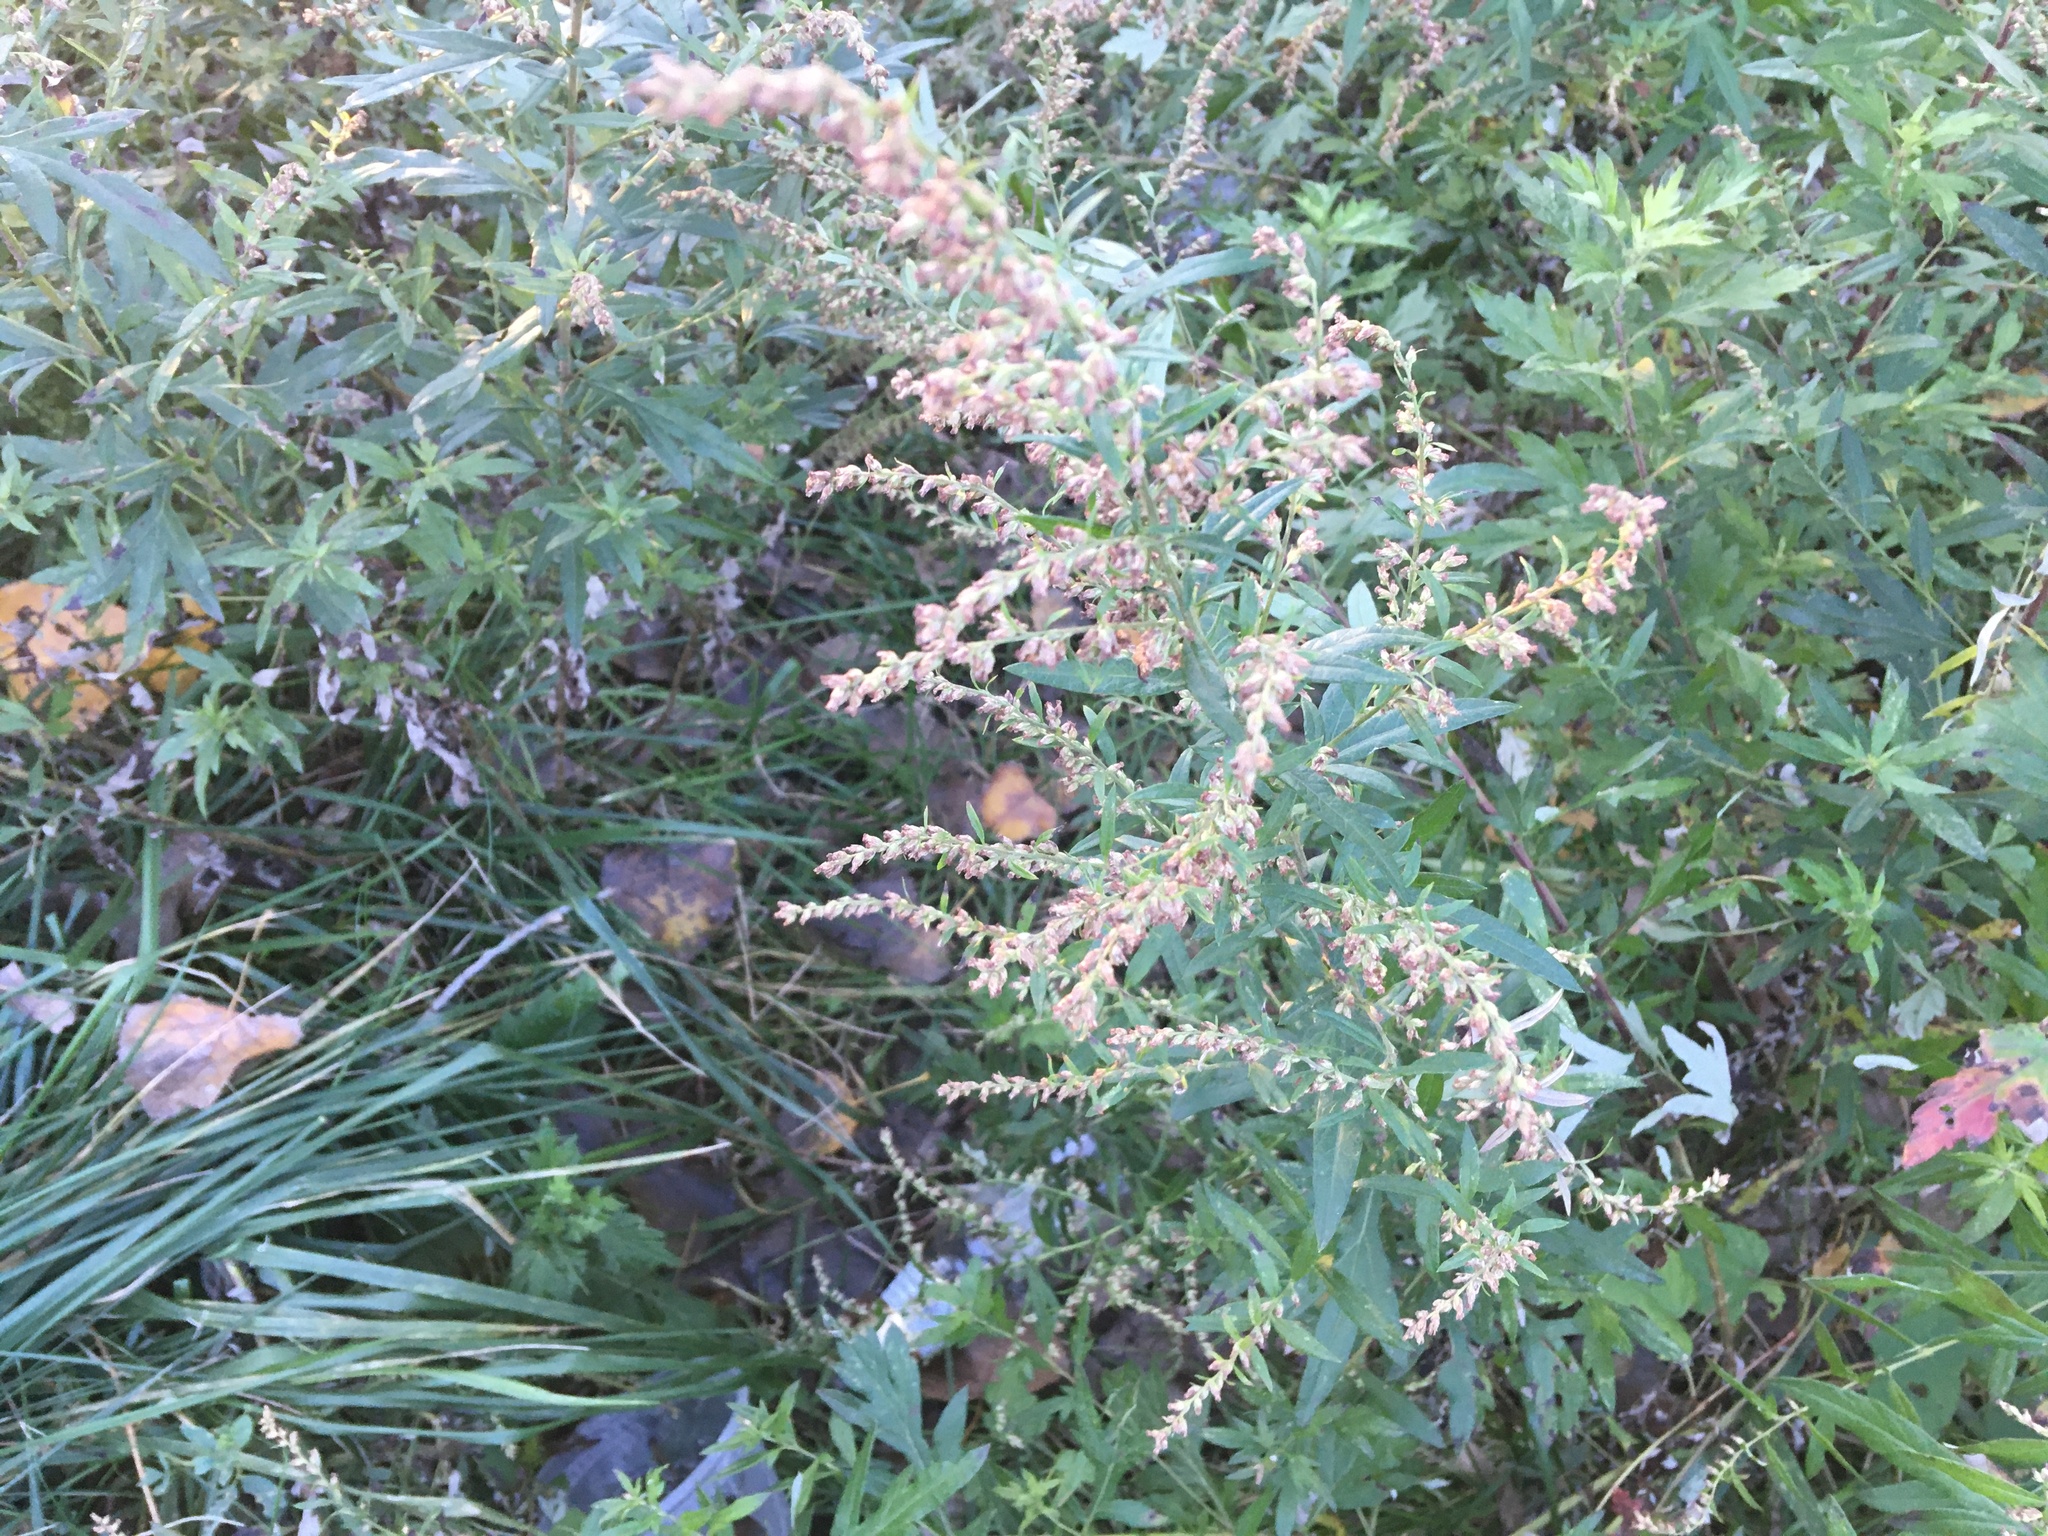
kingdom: Plantae
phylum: Tracheophyta
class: Magnoliopsida
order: Asterales
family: Asteraceae
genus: Artemisia
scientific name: Artemisia vulgaris
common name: Mugwort
